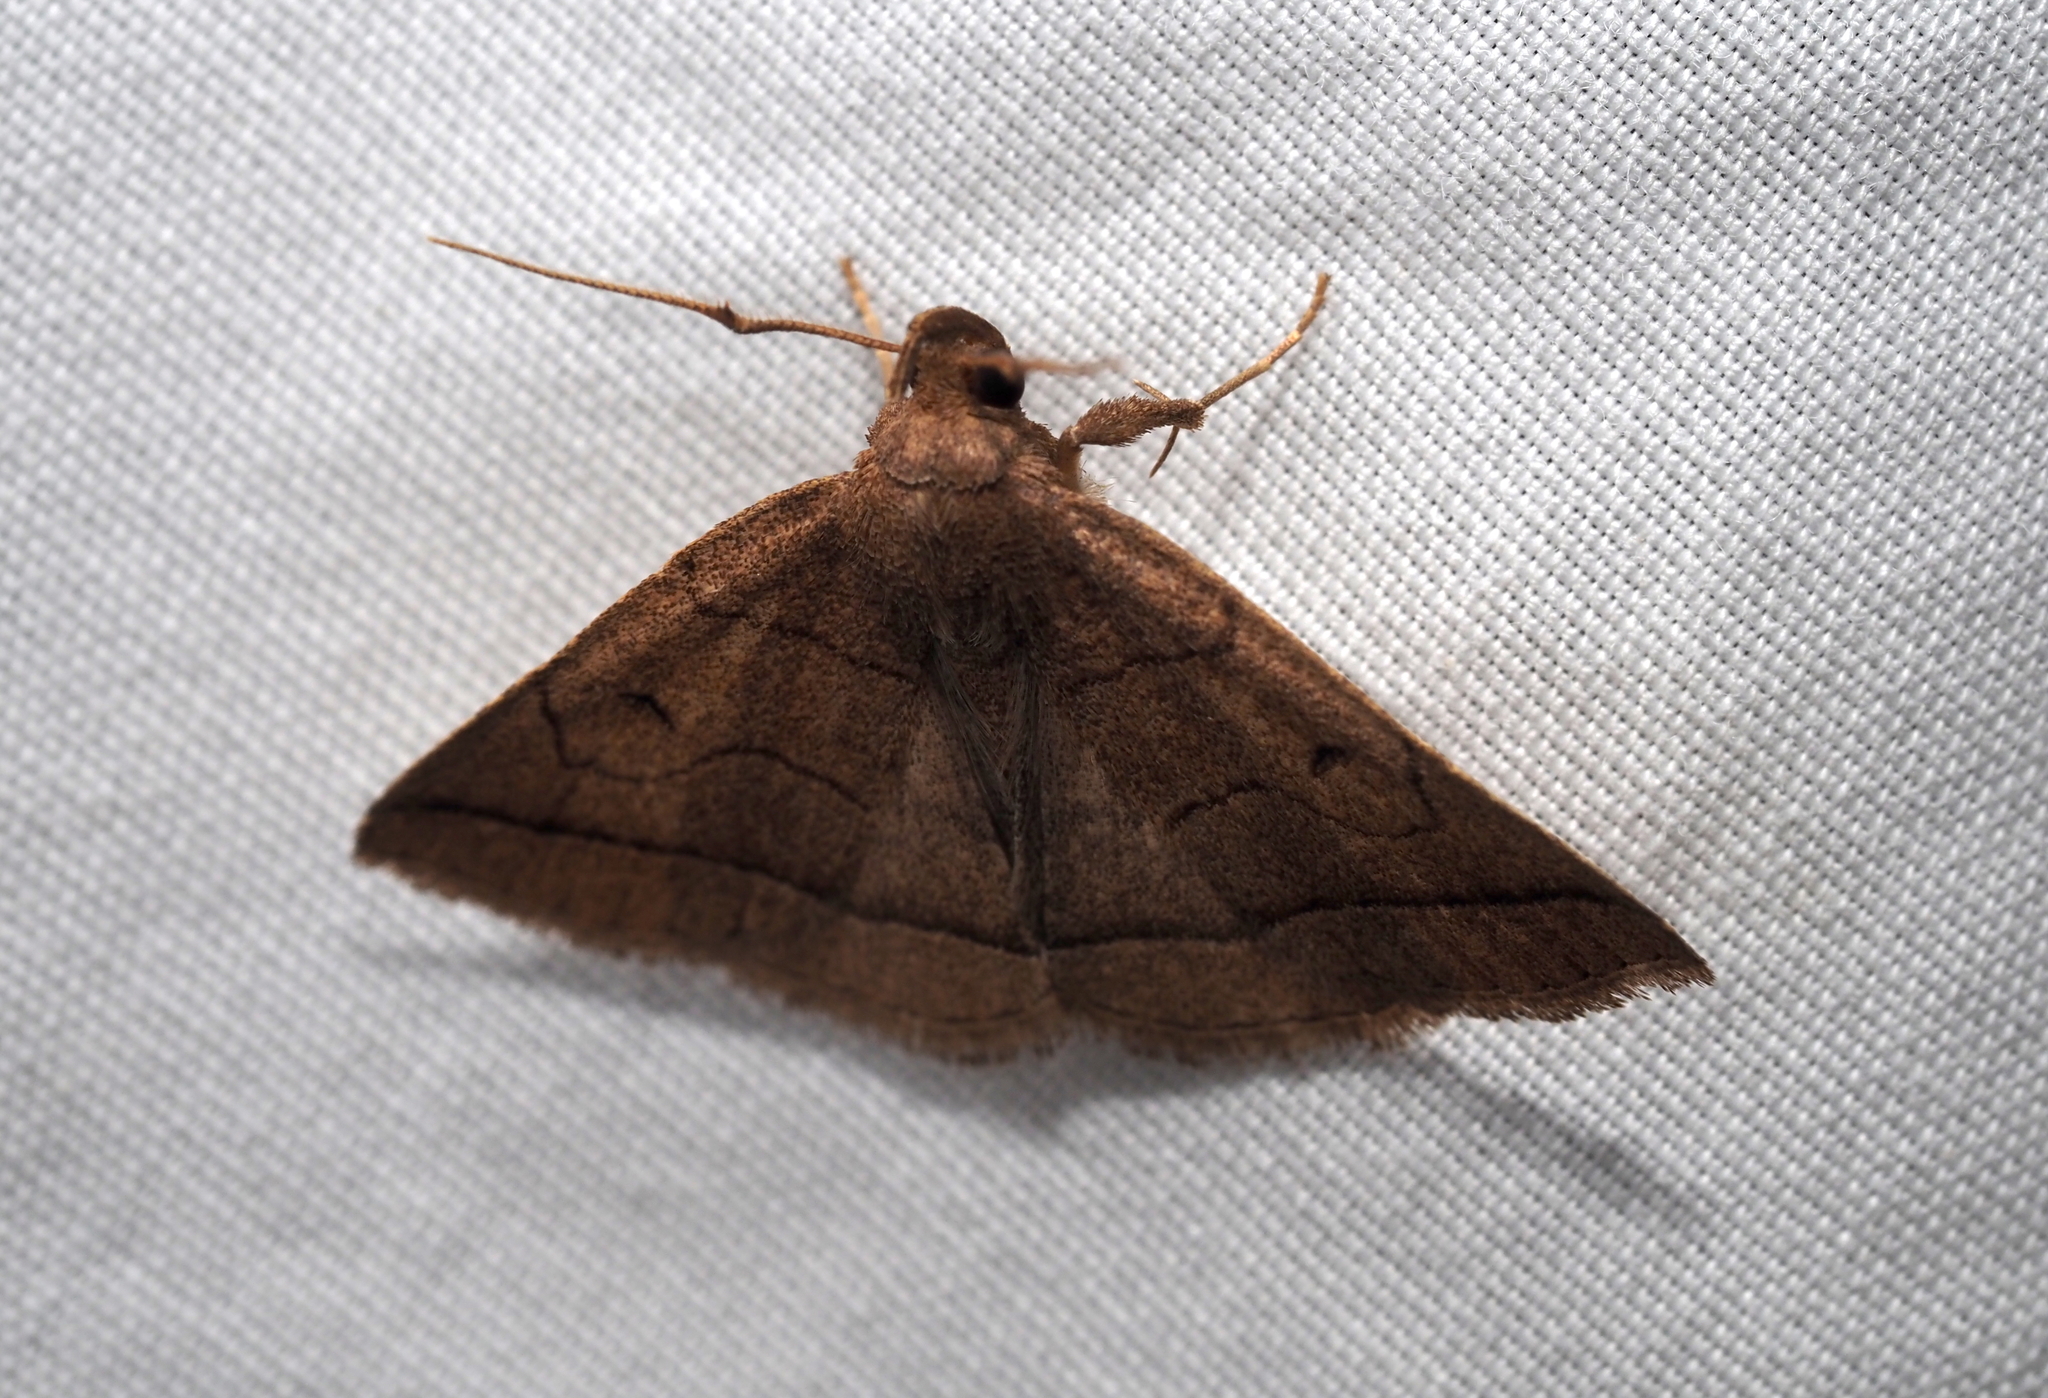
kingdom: Animalia
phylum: Arthropoda
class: Insecta
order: Lepidoptera
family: Erebidae
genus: Zanclognatha
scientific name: Zanclognatha cruralis
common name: Early fan-foot
